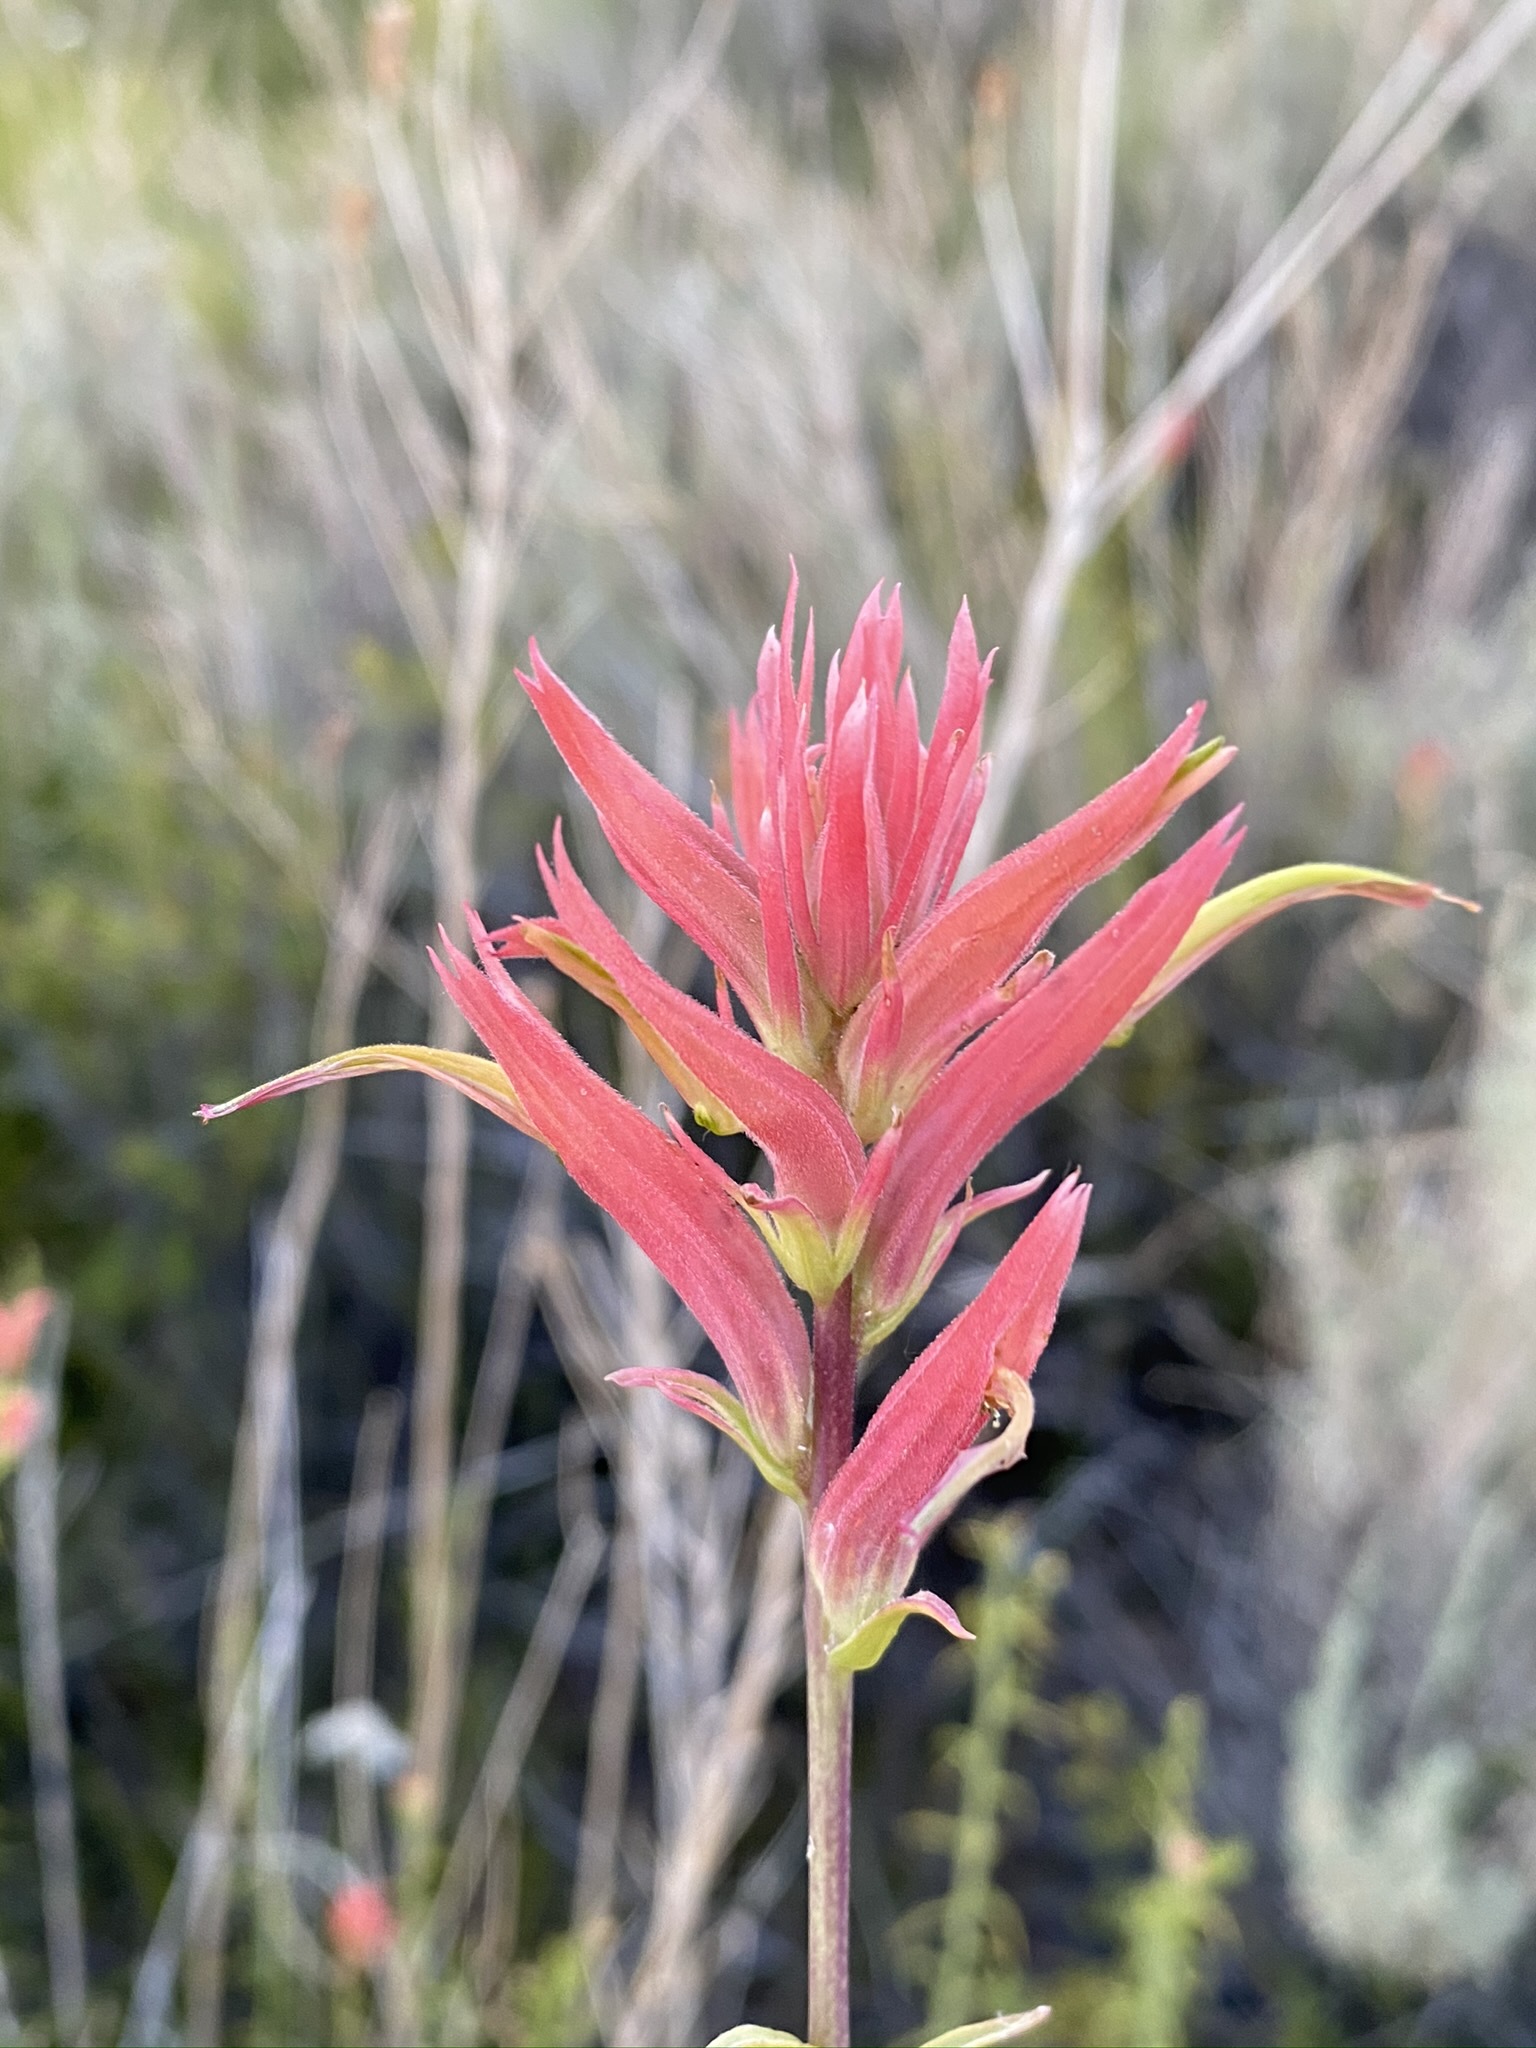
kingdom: Plantae
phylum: Tracheophyta
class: Magnoliopsida
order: Lamiales
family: Orobanchaceae
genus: Castilleja
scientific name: Castilleja linariifolia
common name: Wyoming paintbrush
